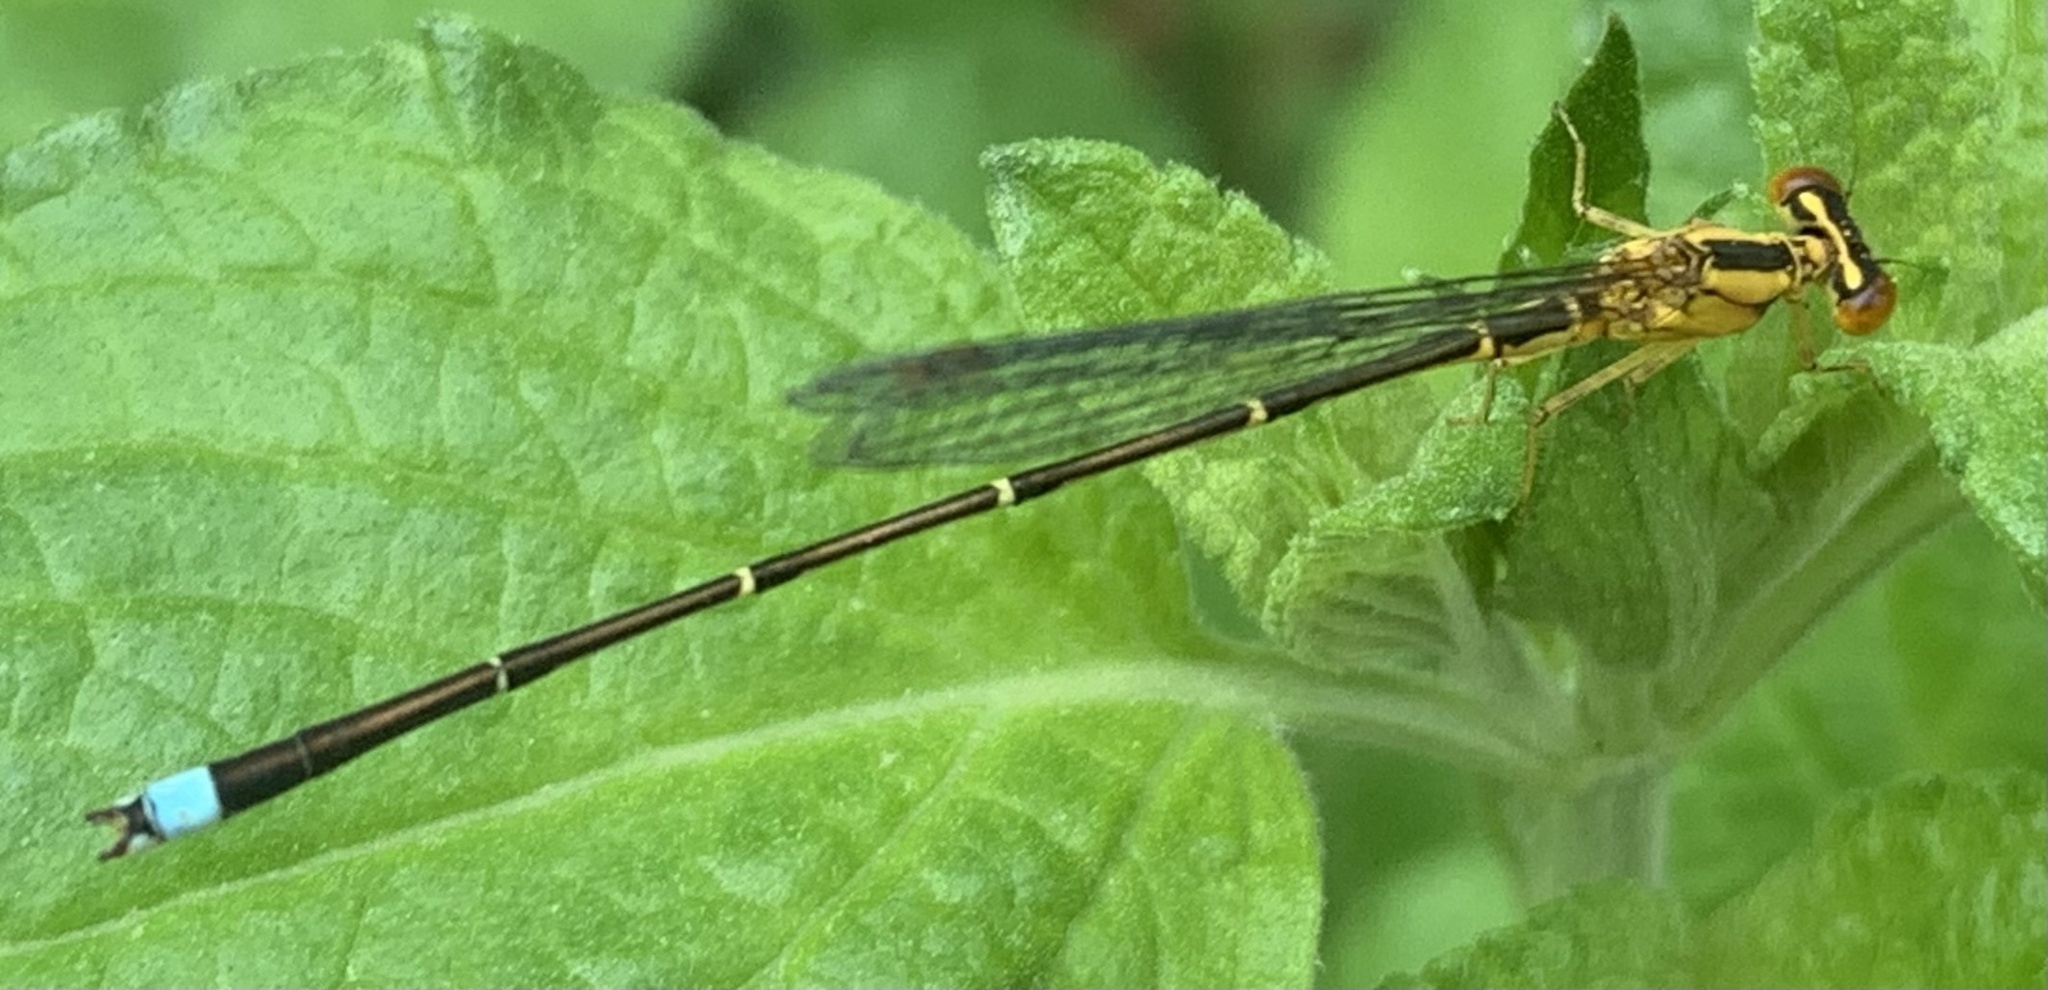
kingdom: Animalia
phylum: Arthropoda
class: Insecta
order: Odonata
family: Coenagrionidae
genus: Enallagma
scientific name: Enallagma vesperum
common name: Vesper bluet
